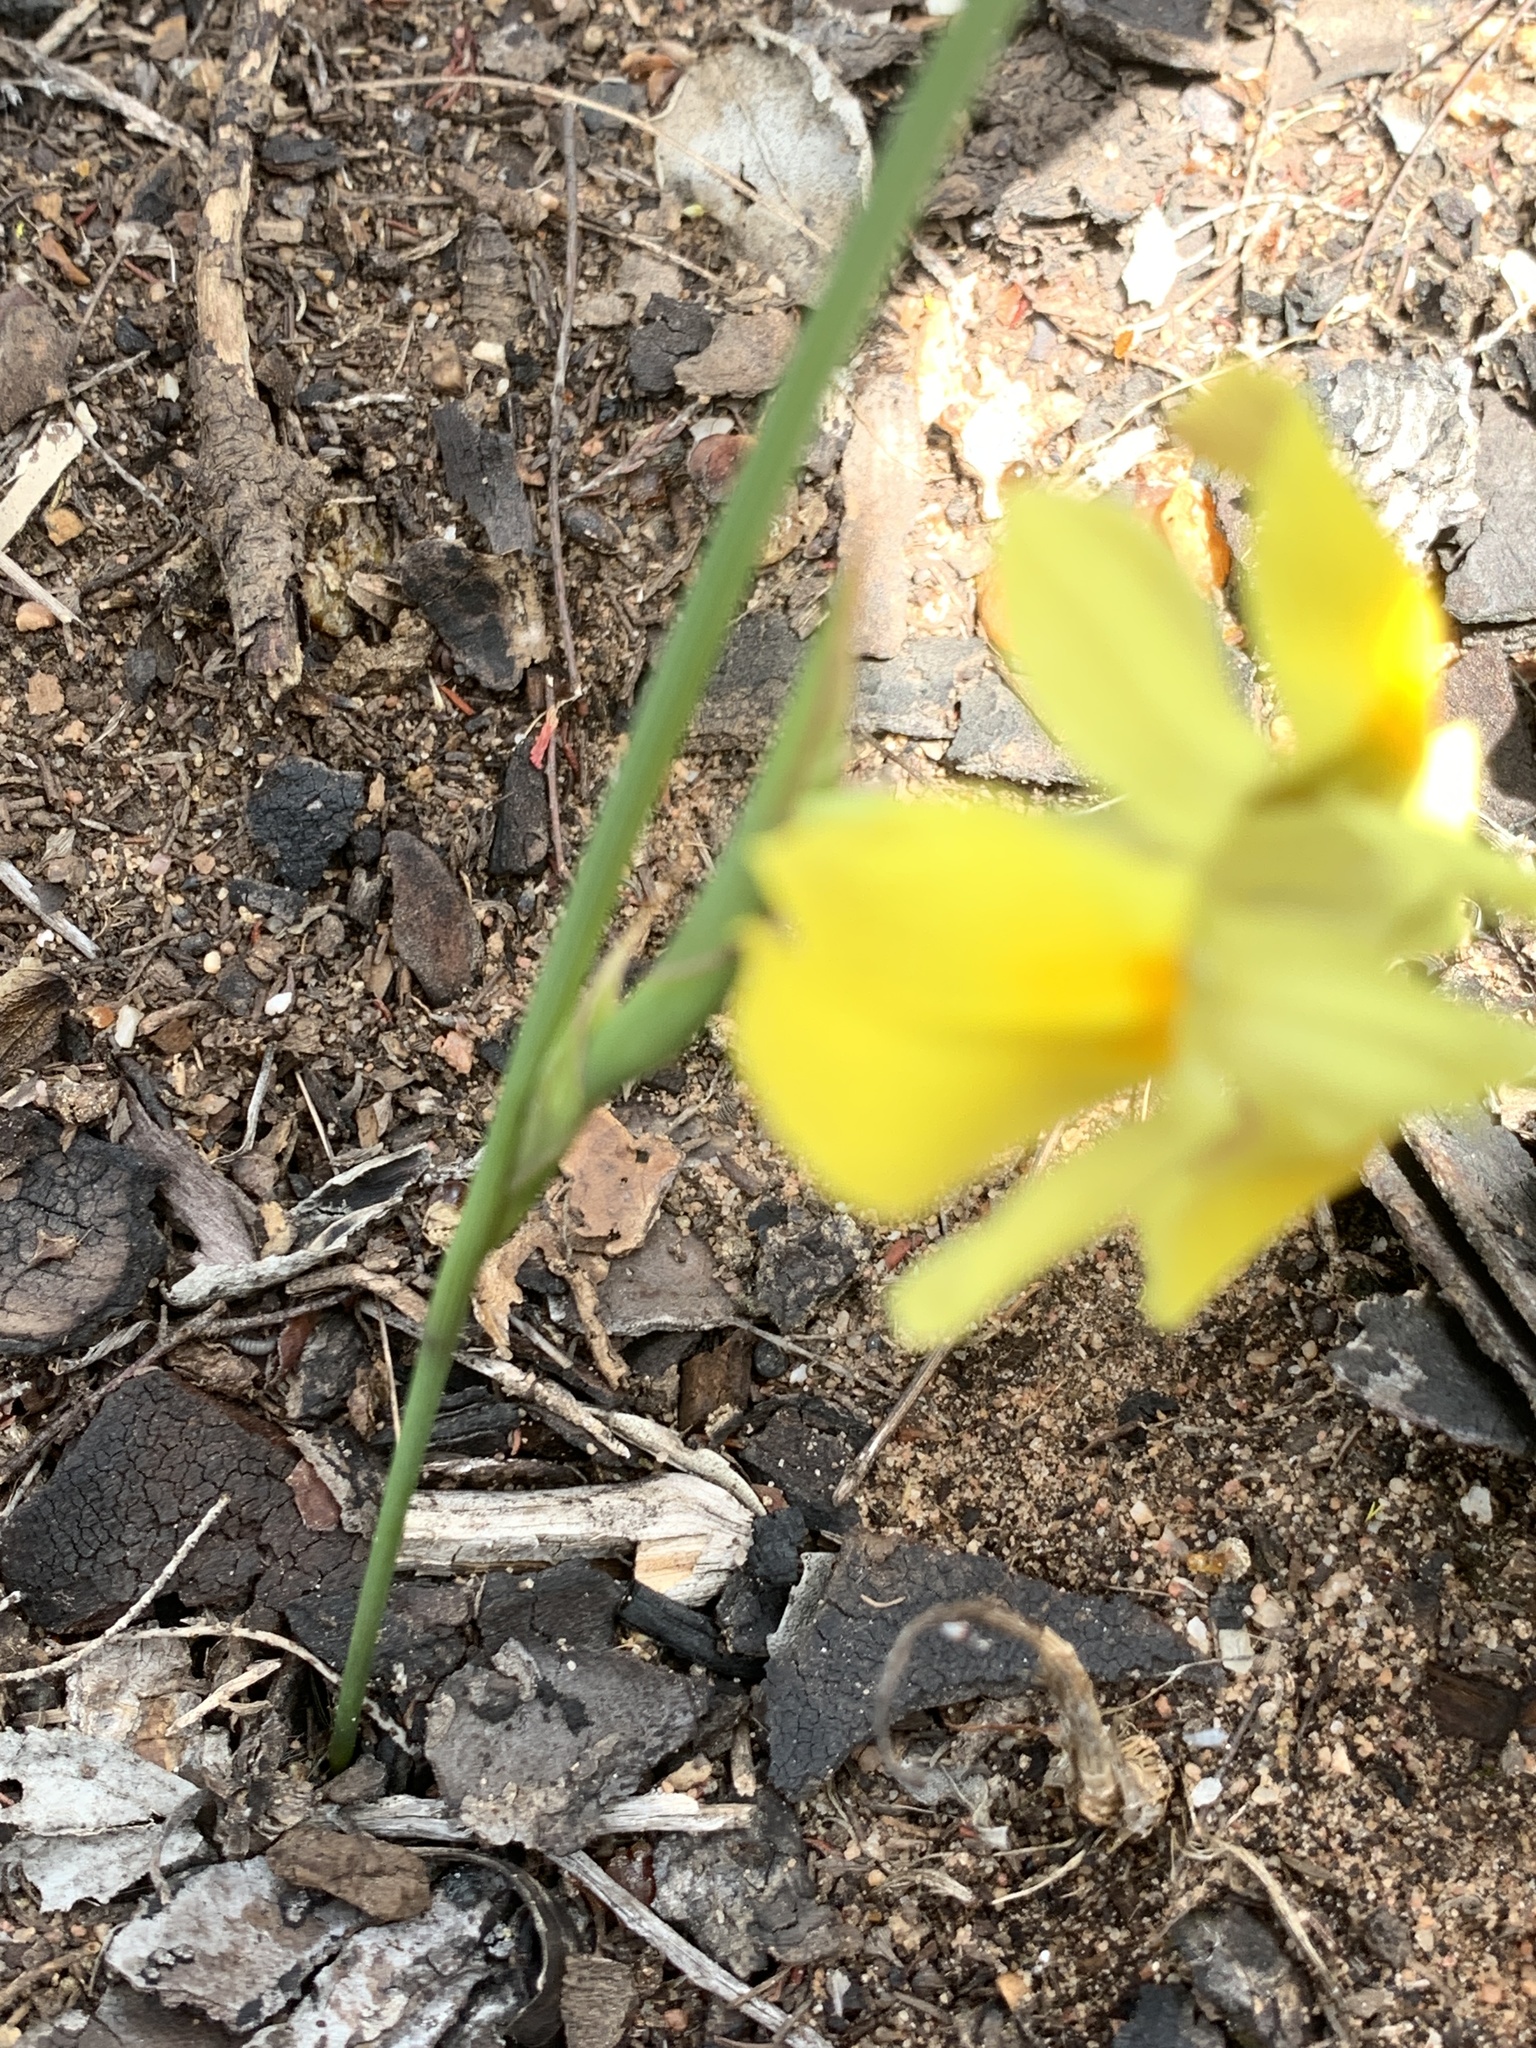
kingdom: Plantae
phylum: Tracheophyta
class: Liliopsida
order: Asparagales
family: Iridaceae
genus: Moraea
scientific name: Moraea fugax
